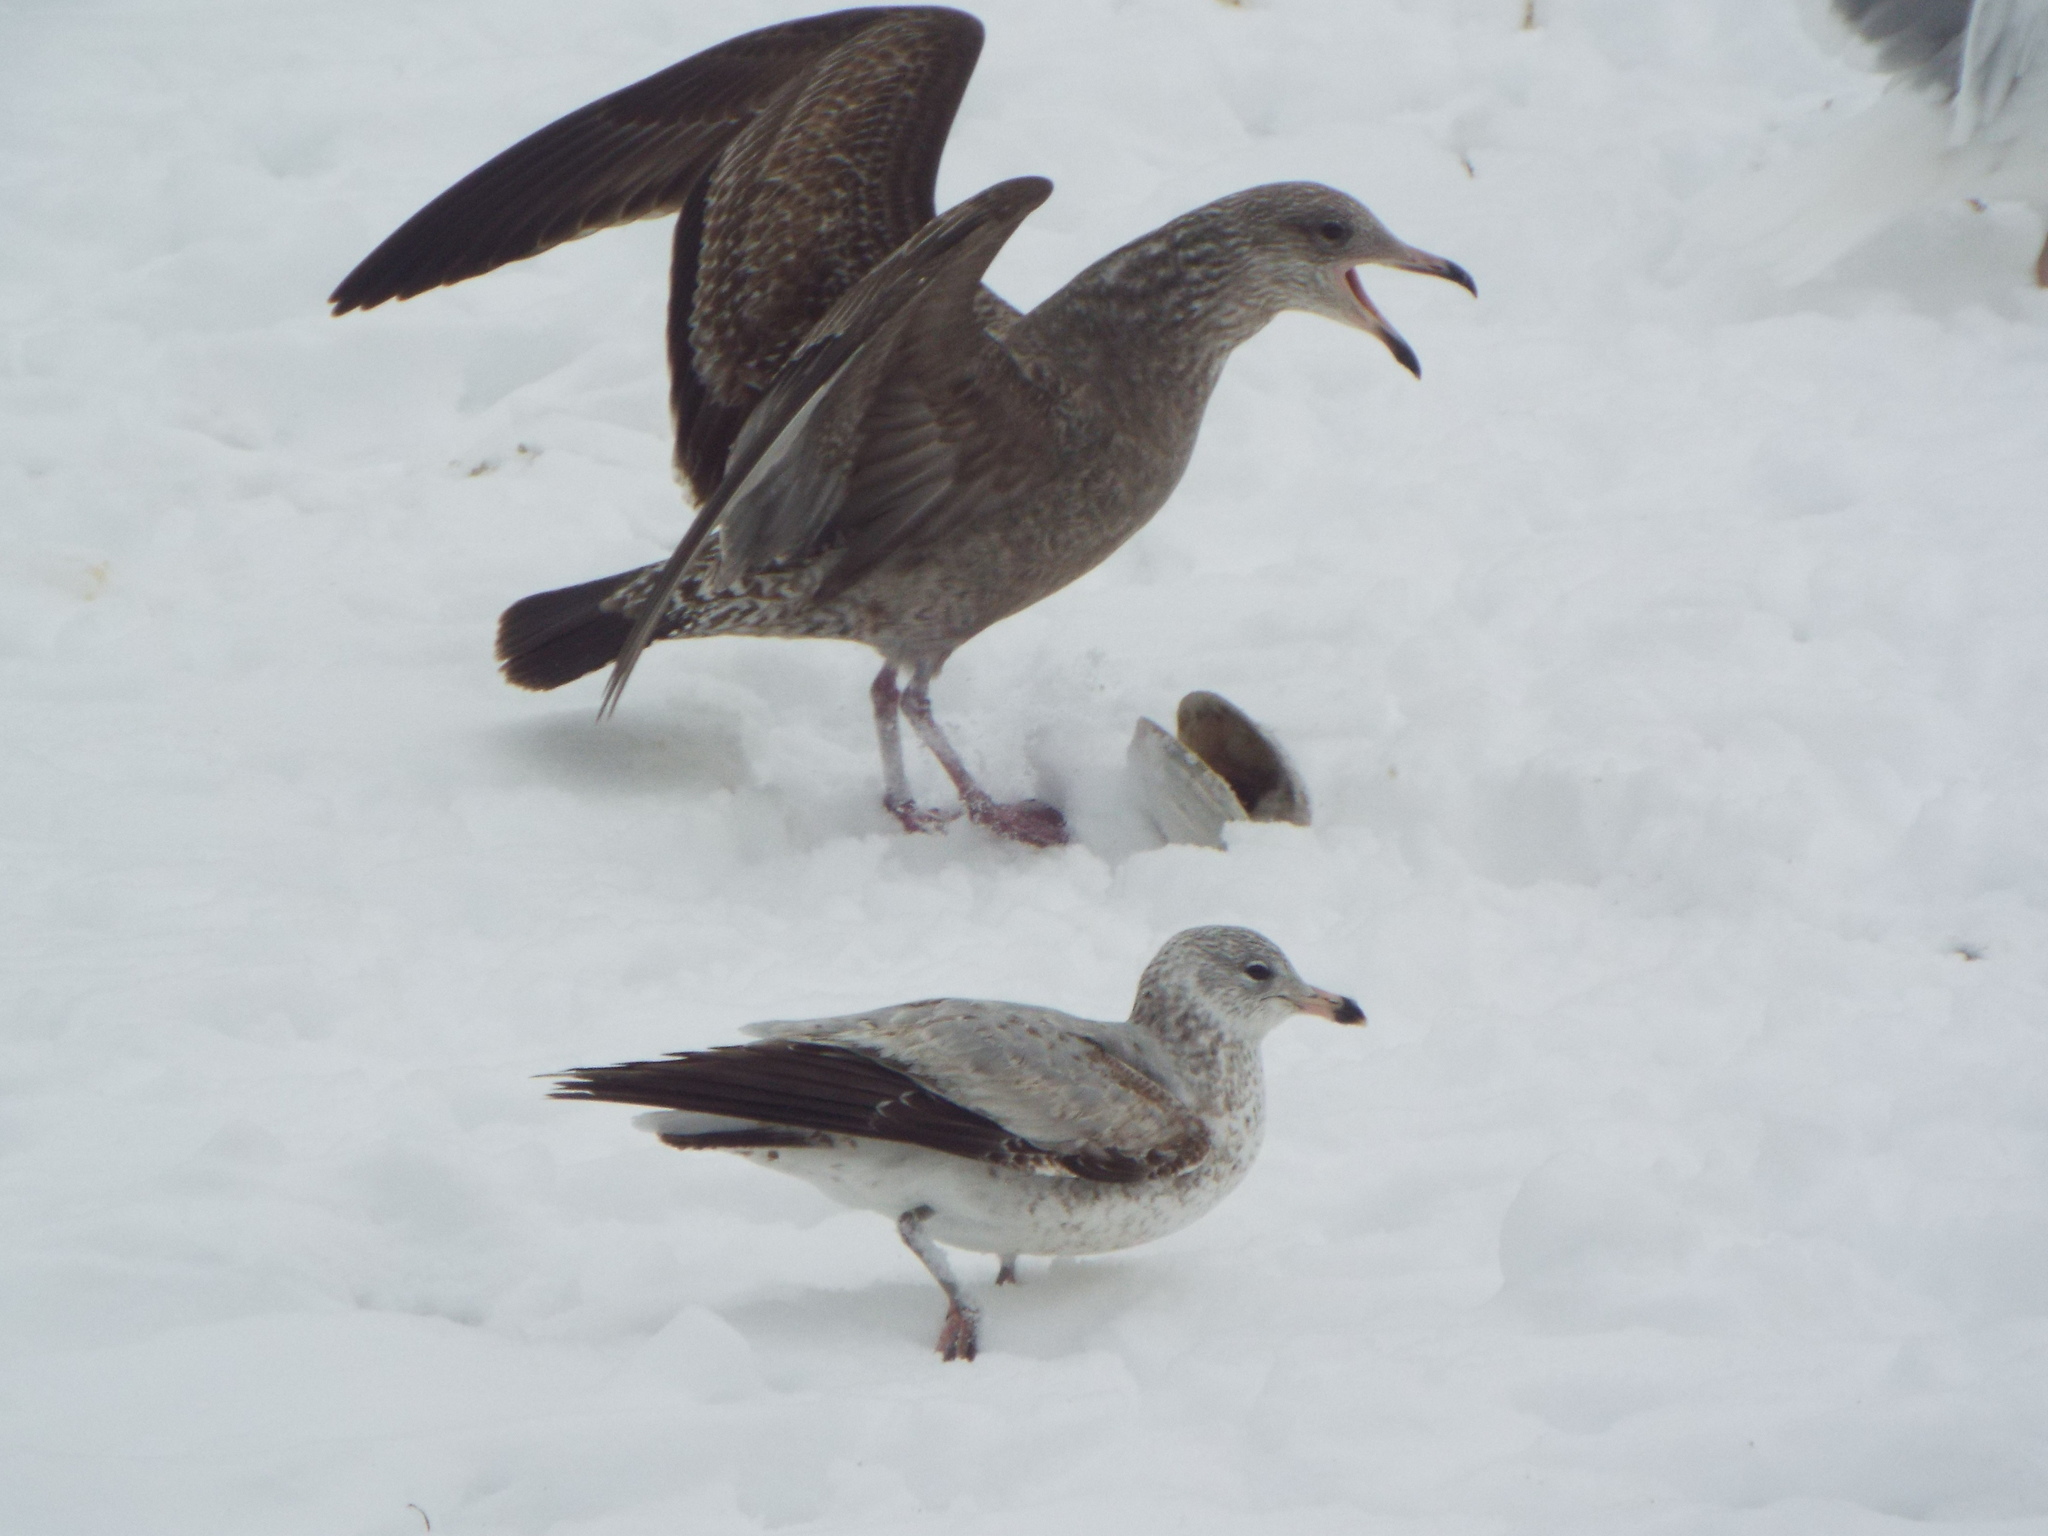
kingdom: Animalia
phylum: Chordata
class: Aves
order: Charadriiformes
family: Laridae
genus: Larus
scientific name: Larus argentatus
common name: Herring gull
